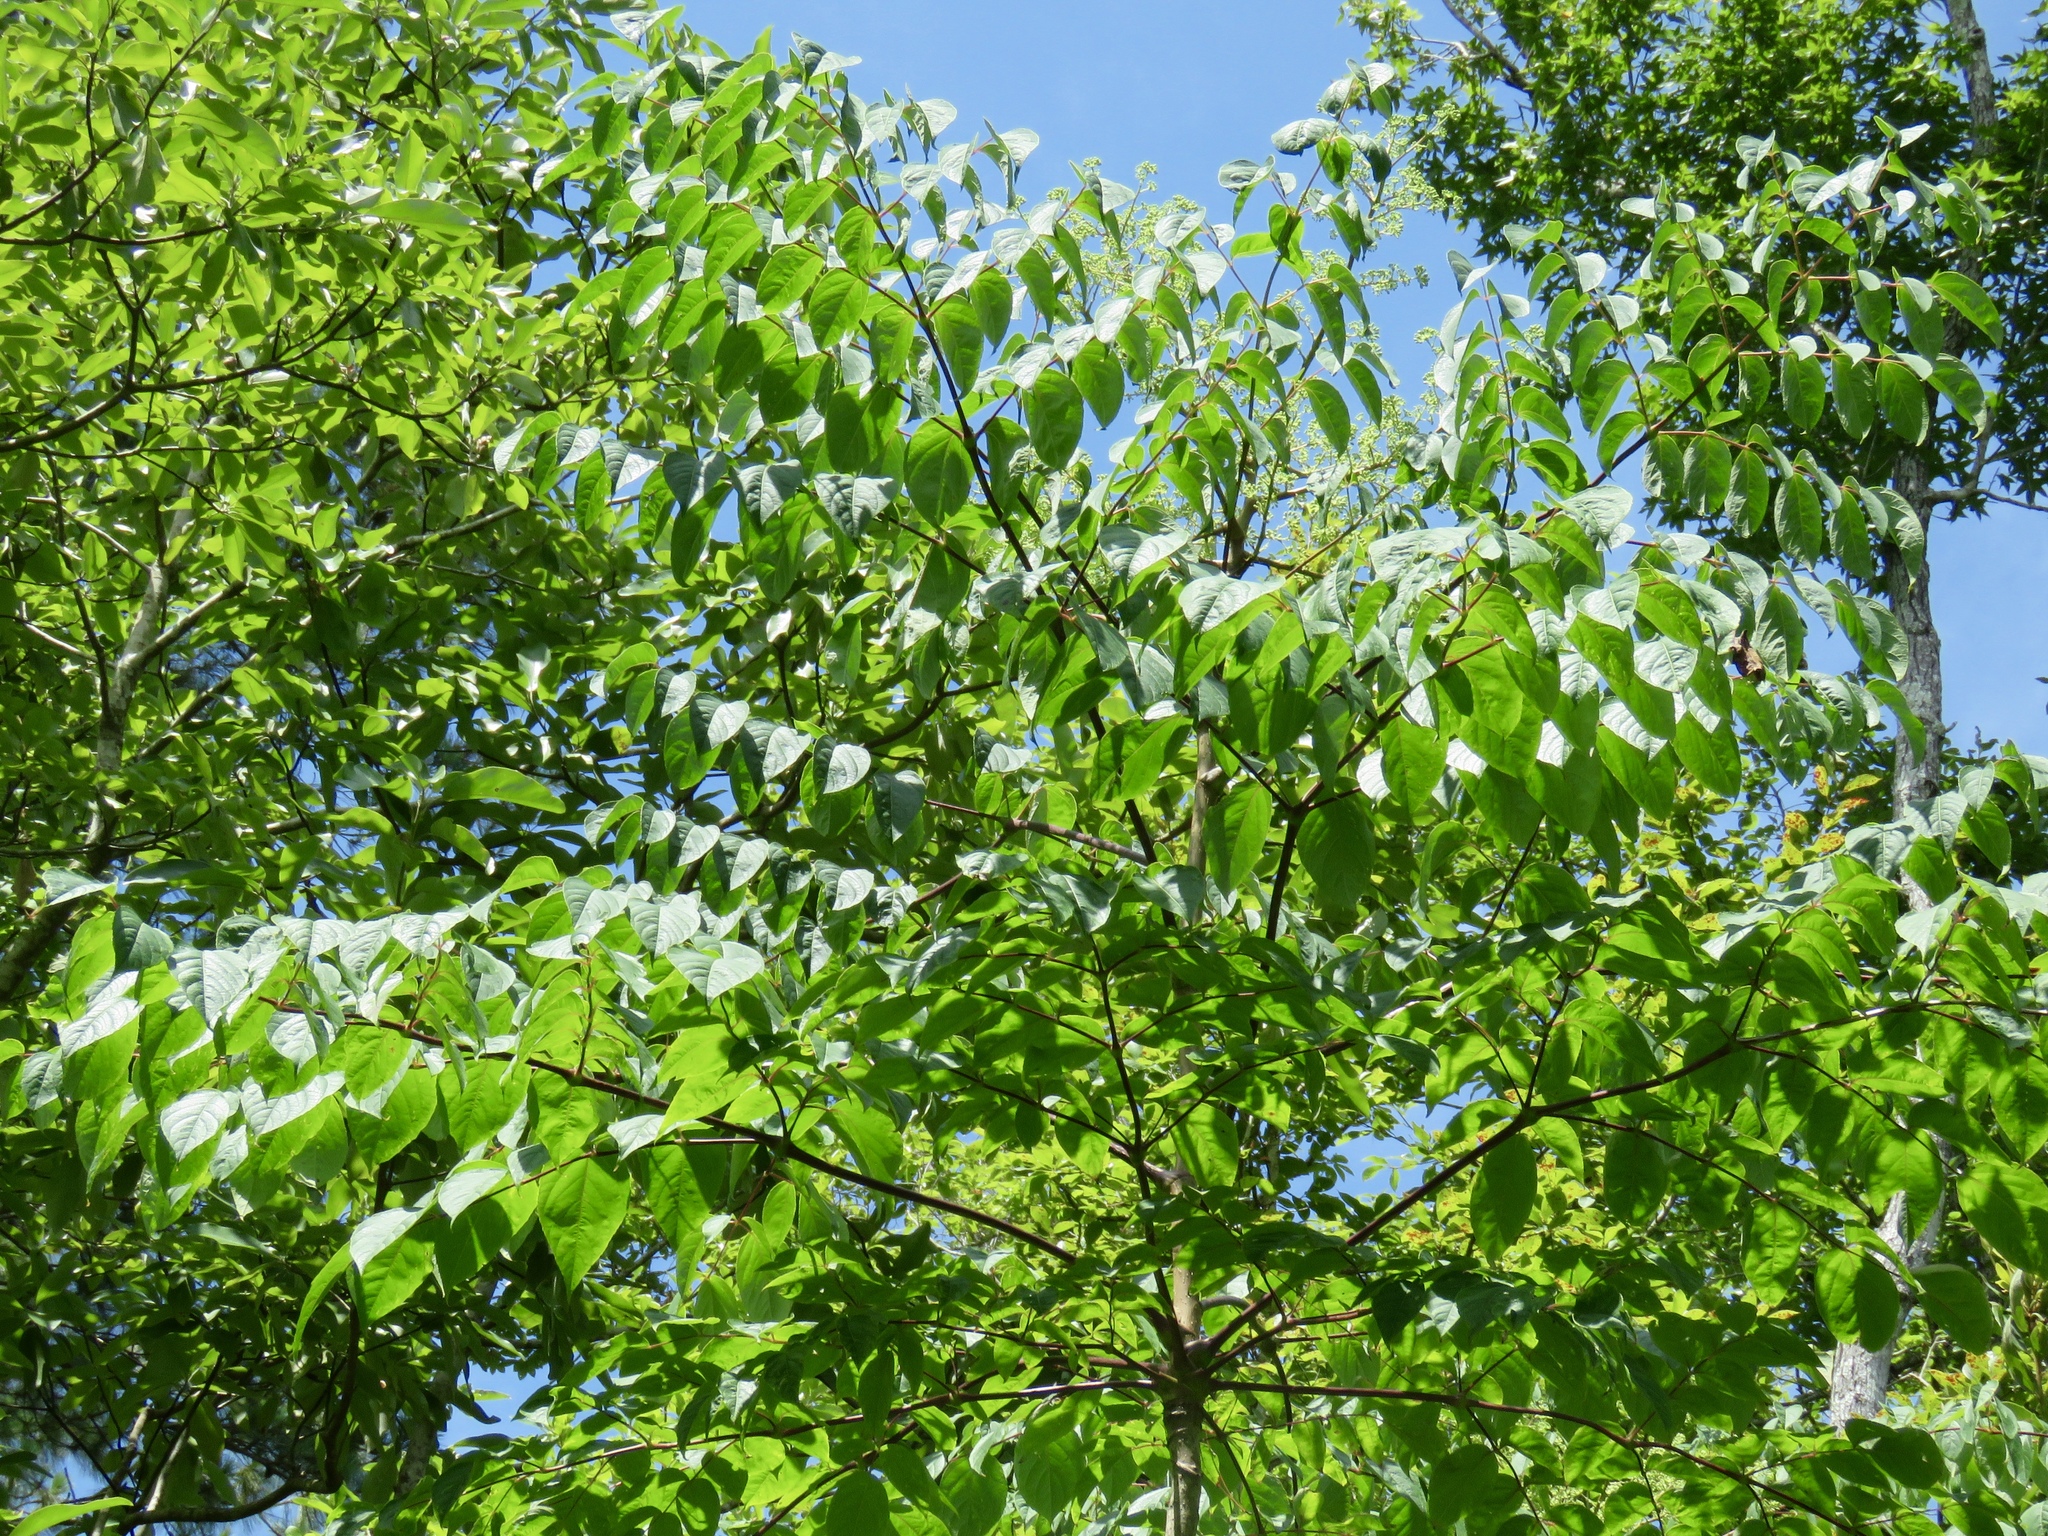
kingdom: Plantae
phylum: Tracheophyta
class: Magnoliopsida
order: Apiales
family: Araliaceae
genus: Aralia
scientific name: Aralia spinosa
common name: Hercules'-club
